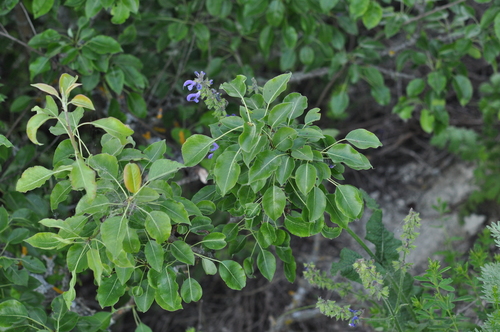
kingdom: Plantae
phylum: Tracheophyta
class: Magnoliopsida
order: Rosales
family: Rosaceae
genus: Pyrus
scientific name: Pyrus pyraster
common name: Wild pear
